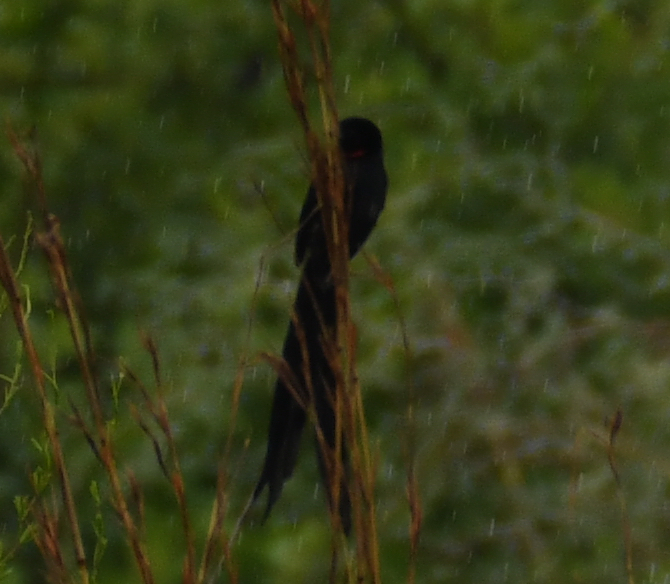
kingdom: Animalia
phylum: Chordata
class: Aves
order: Passeriformes
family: Ploceidae
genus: Euplectes
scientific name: Euplectes ardens
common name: Red-collared widowbird
